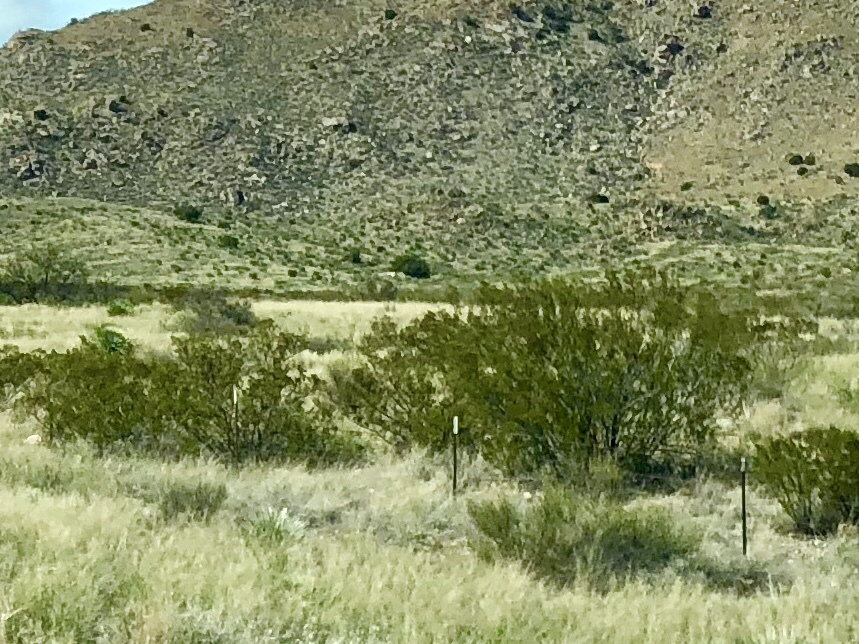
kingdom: Plantae
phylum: Tracheophyta
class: Magnoliopsida
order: Zygophyllales
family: Zygophyllaceae
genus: Larrea
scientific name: Larrea tridentata
